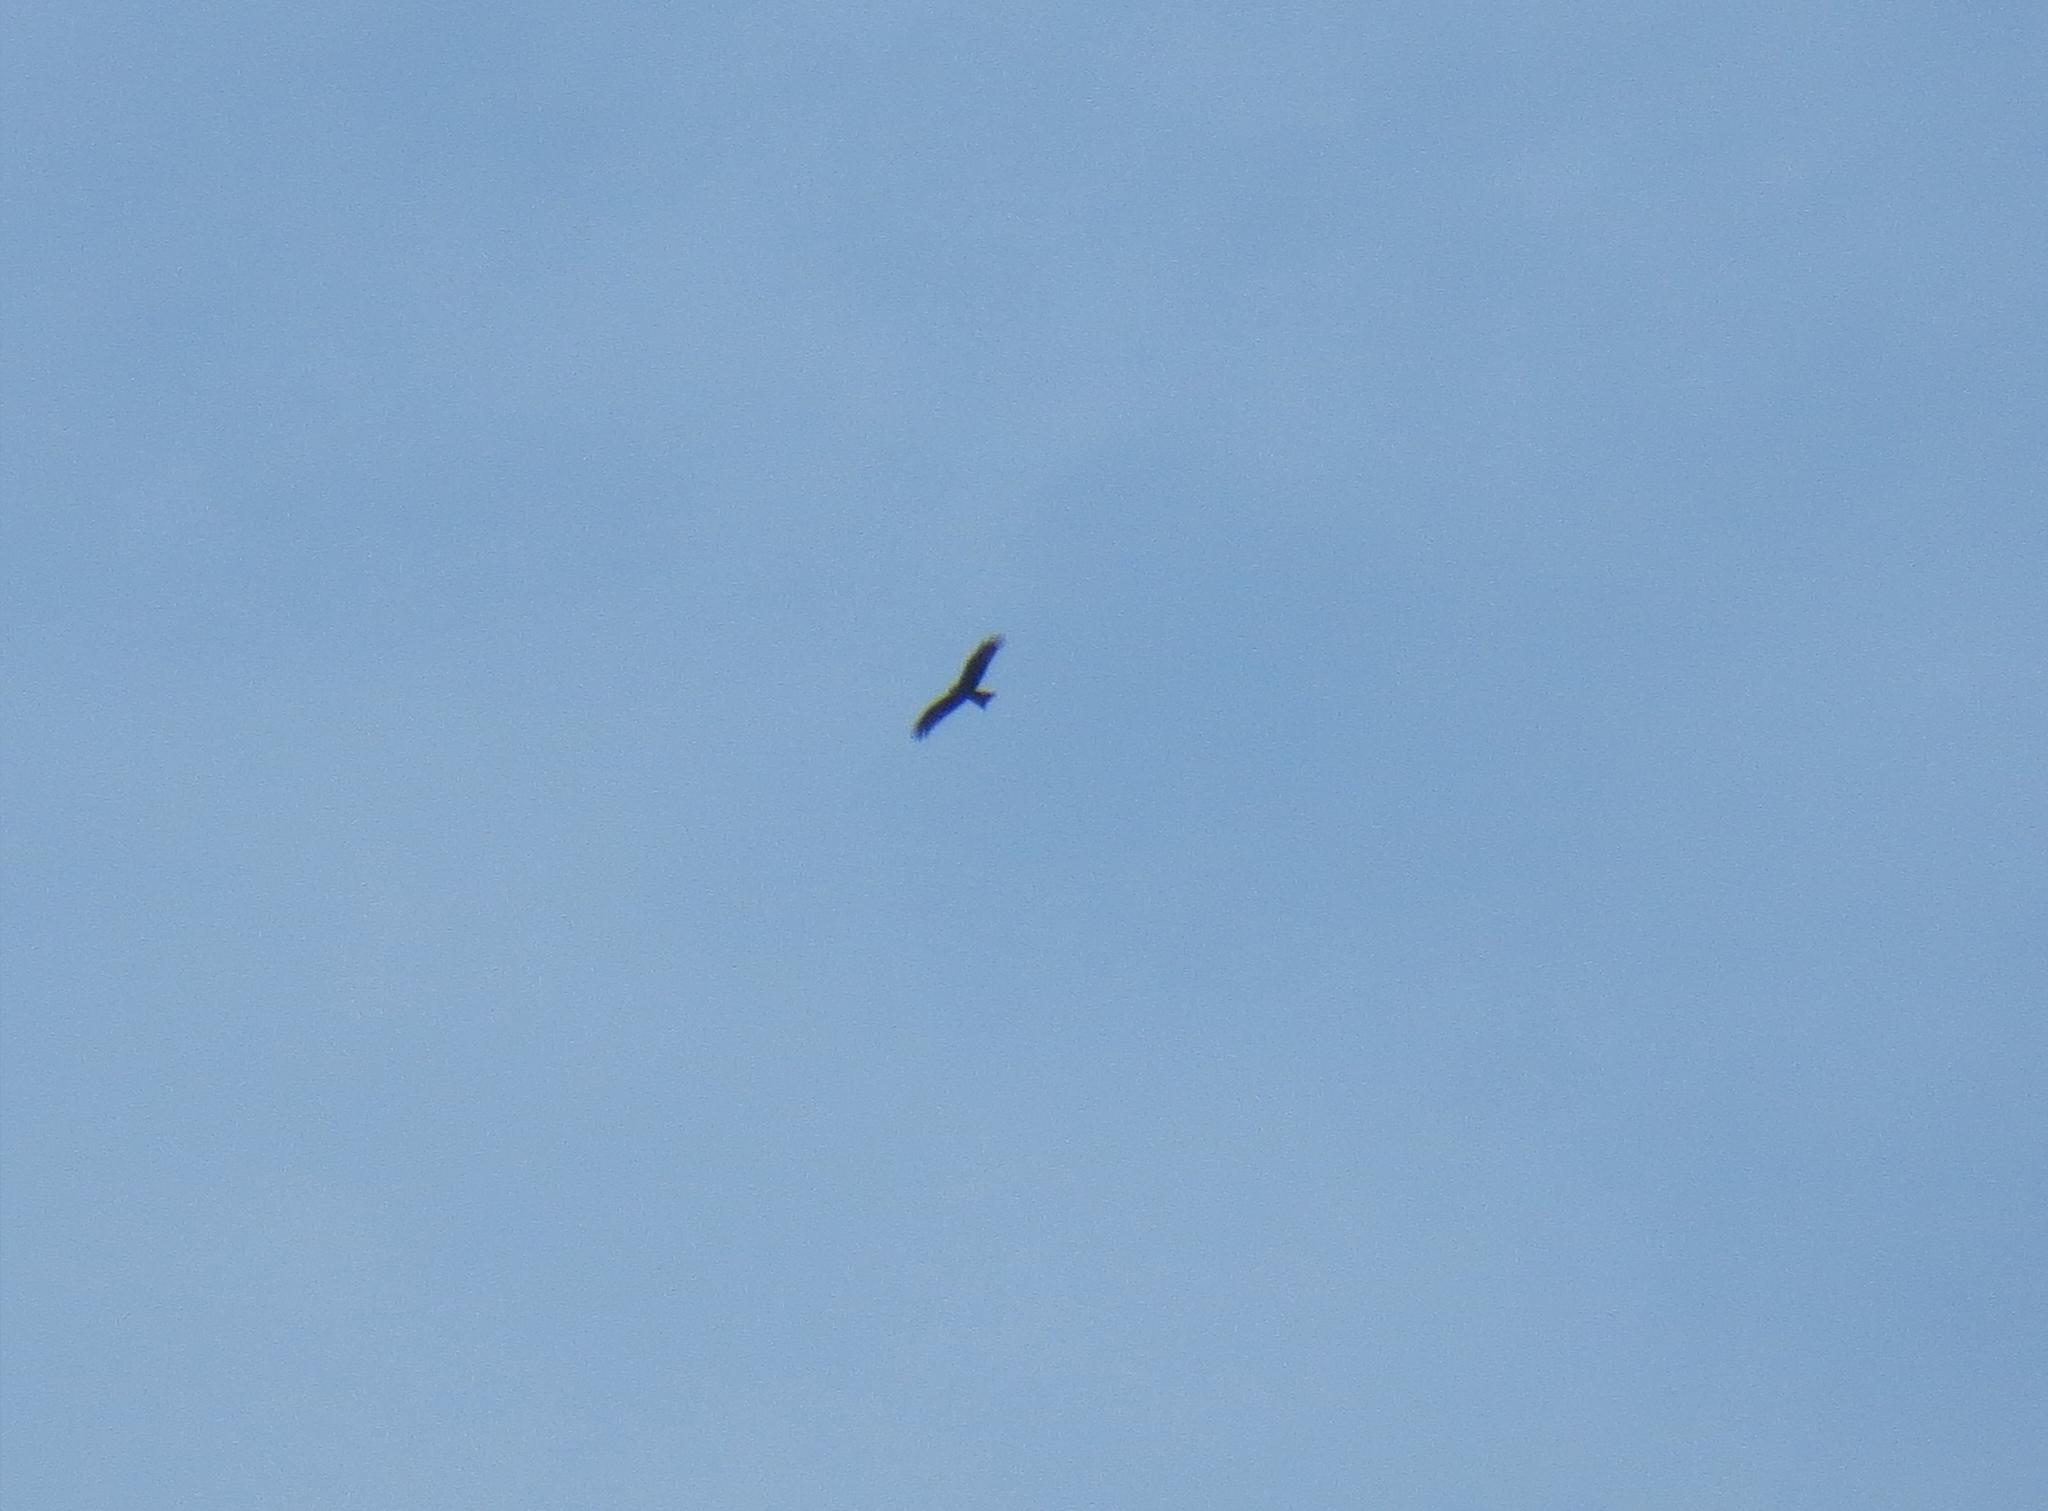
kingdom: Animalia
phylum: Chordata
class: Aves
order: Accipitriformes
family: Accipitridae
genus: Milvus
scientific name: Milvus migrans
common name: Black kite
